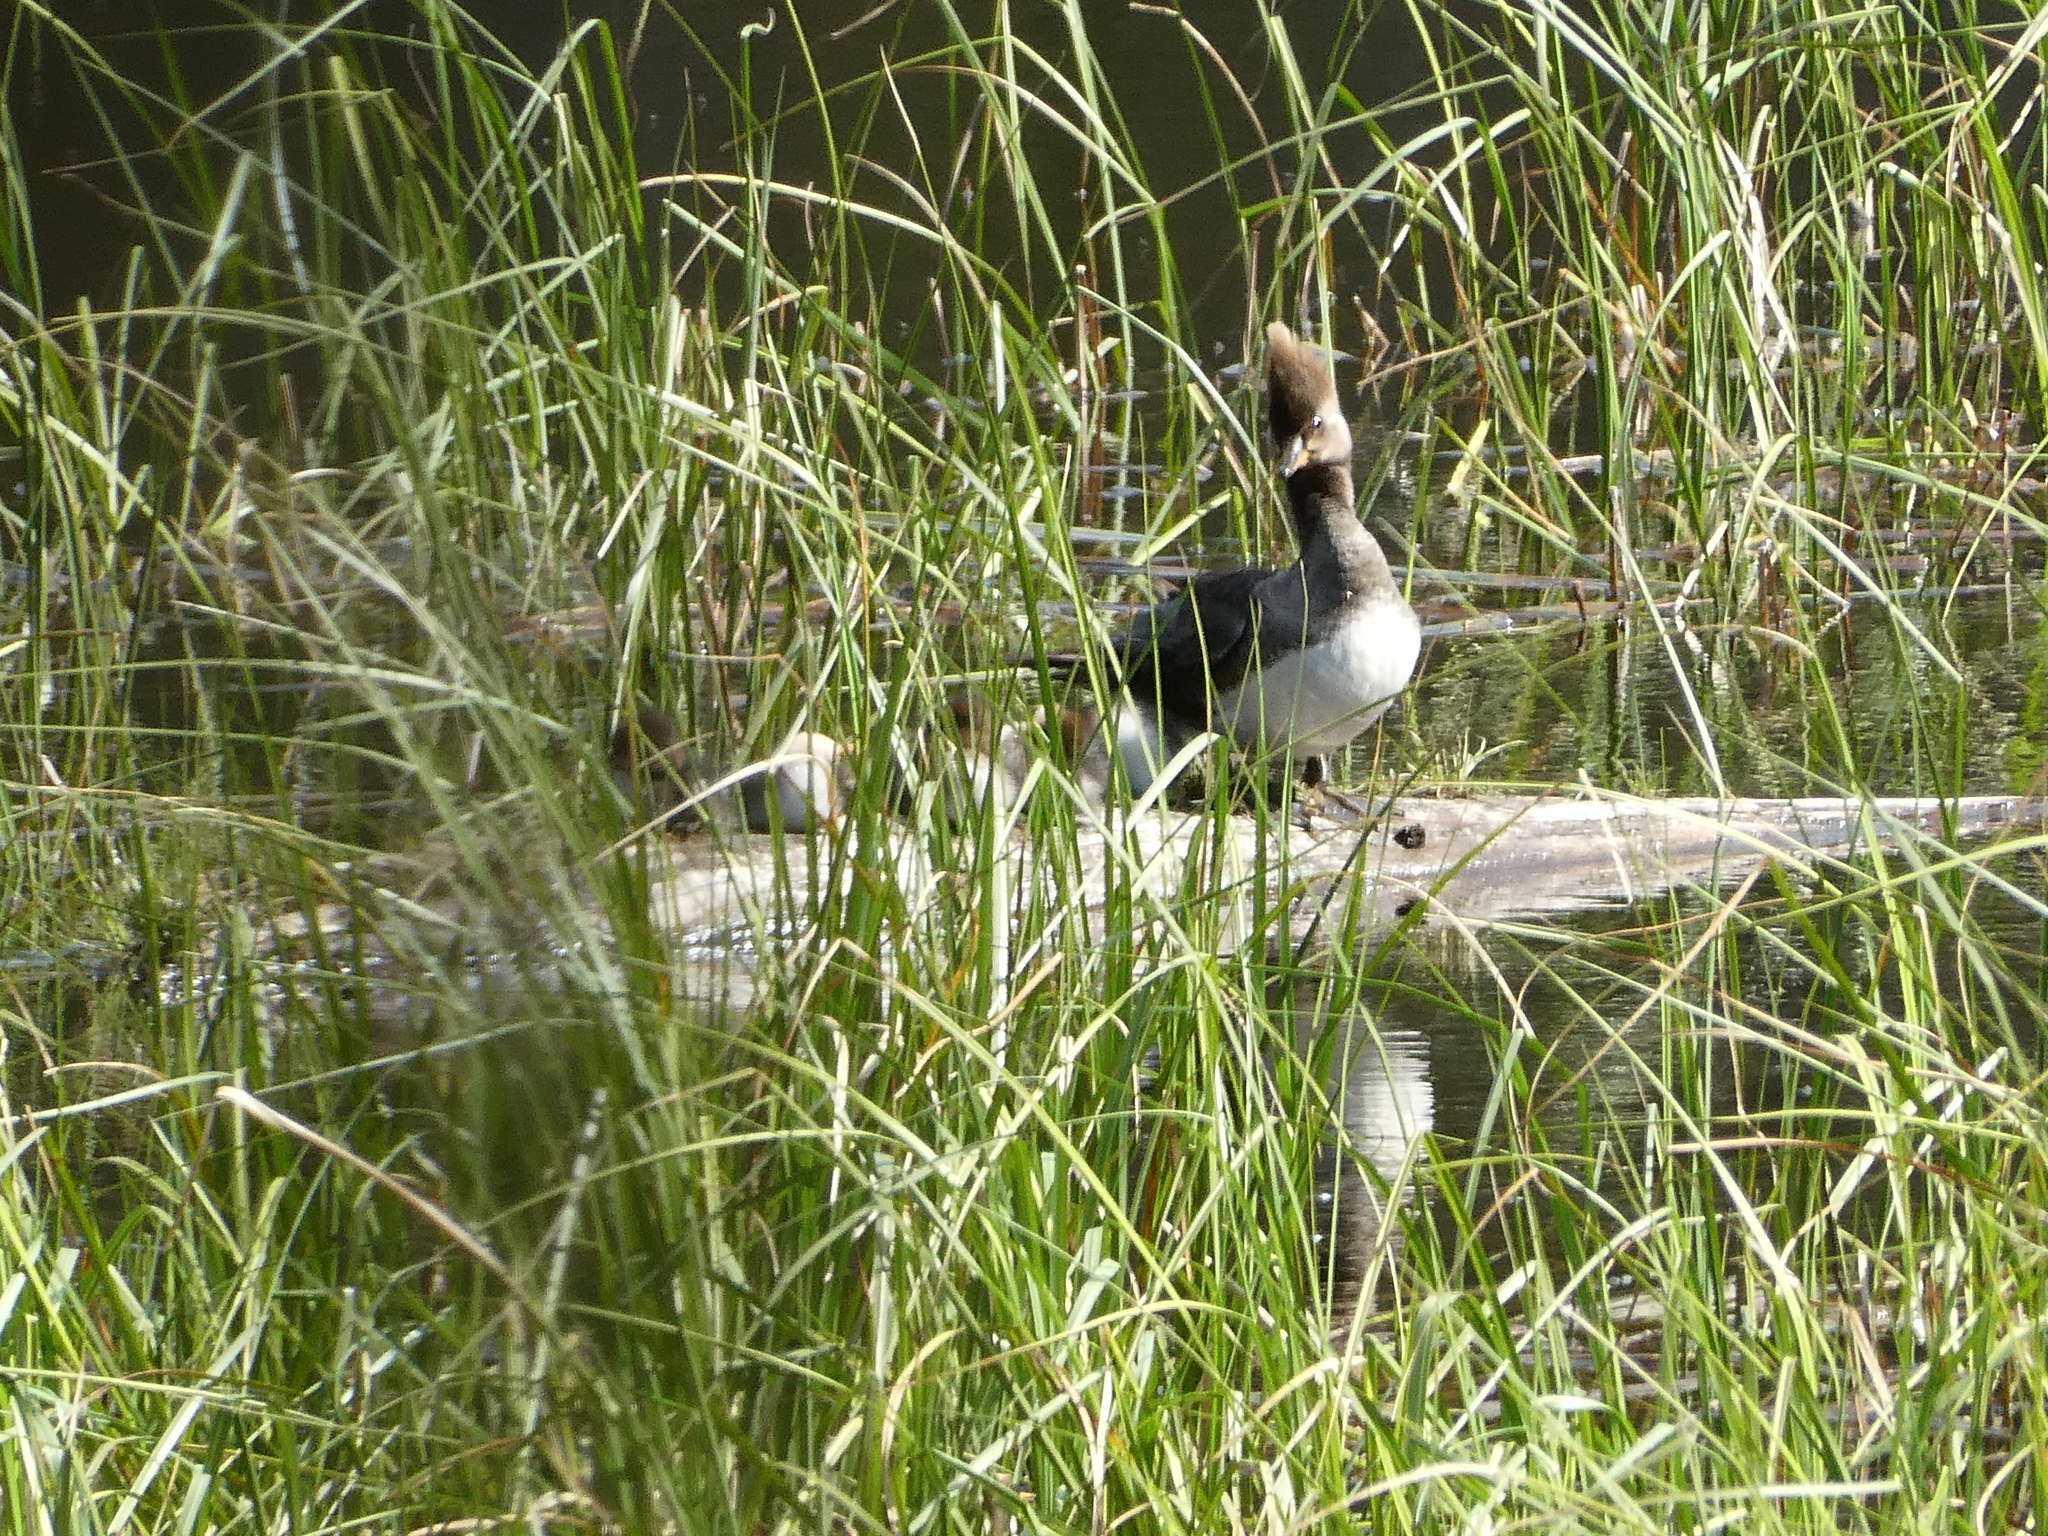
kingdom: Animalia
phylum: Chordata
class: Aves
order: Anseriformes
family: Anatidae
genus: Lophodytes
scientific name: Lophodytes cucullatus
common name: Hooded merganser
